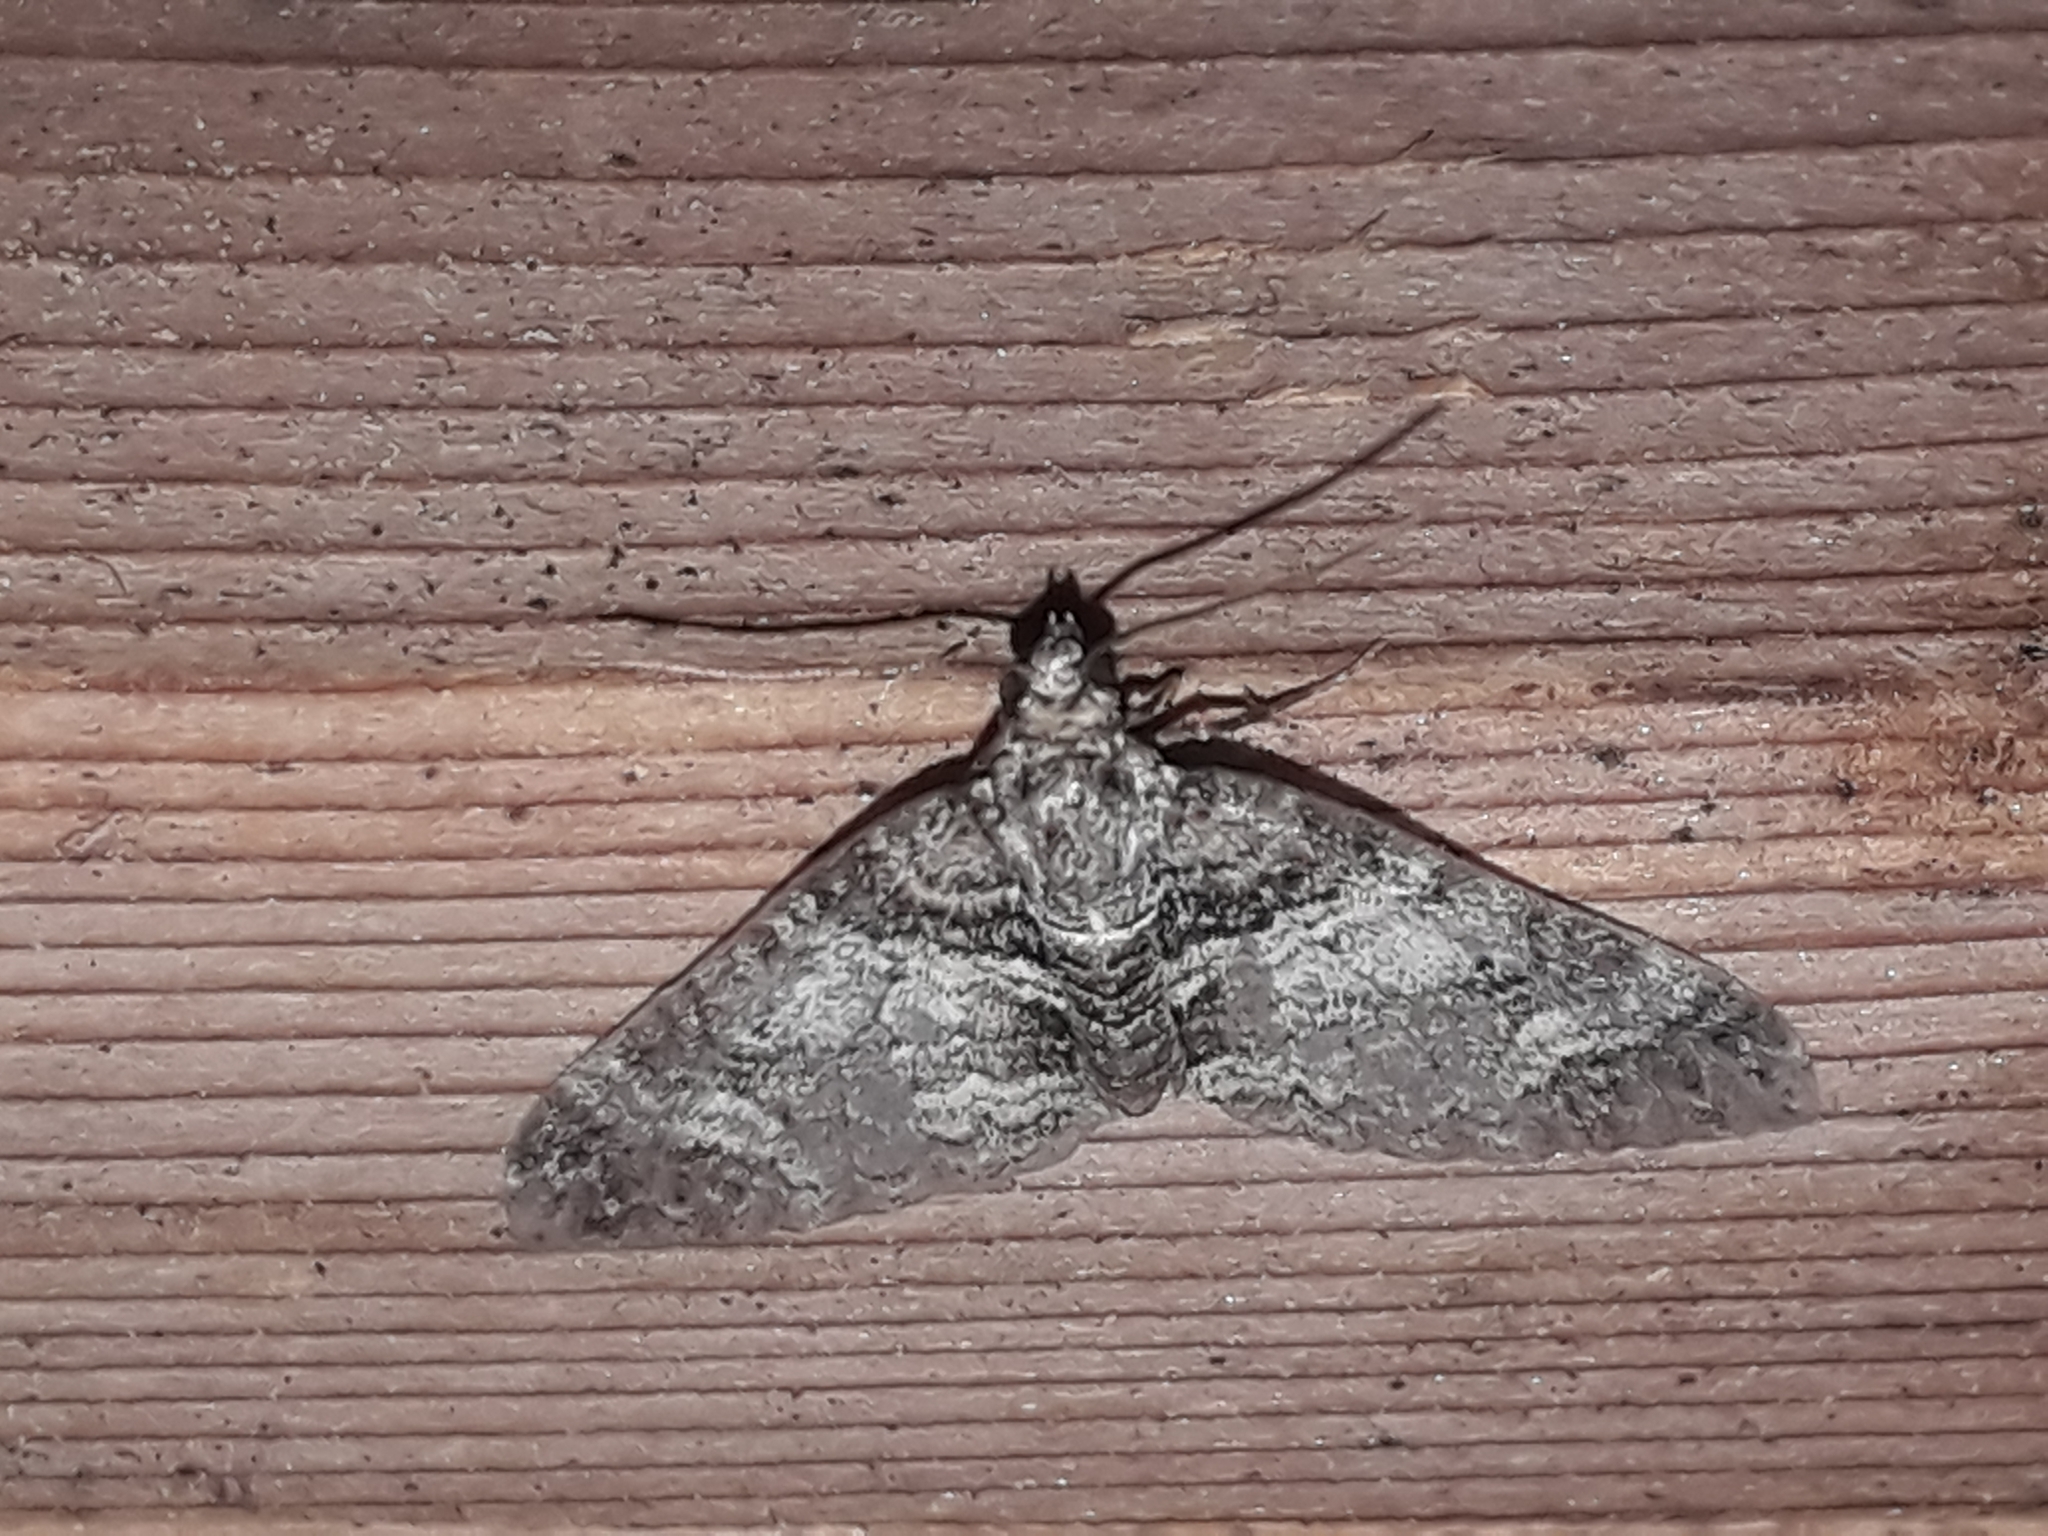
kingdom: Animalia
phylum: Arthropoda
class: Insecta
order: Lepidoptera
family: Geometridae
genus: Pareulype
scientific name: Pareulype berberata
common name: Barberry carpet
